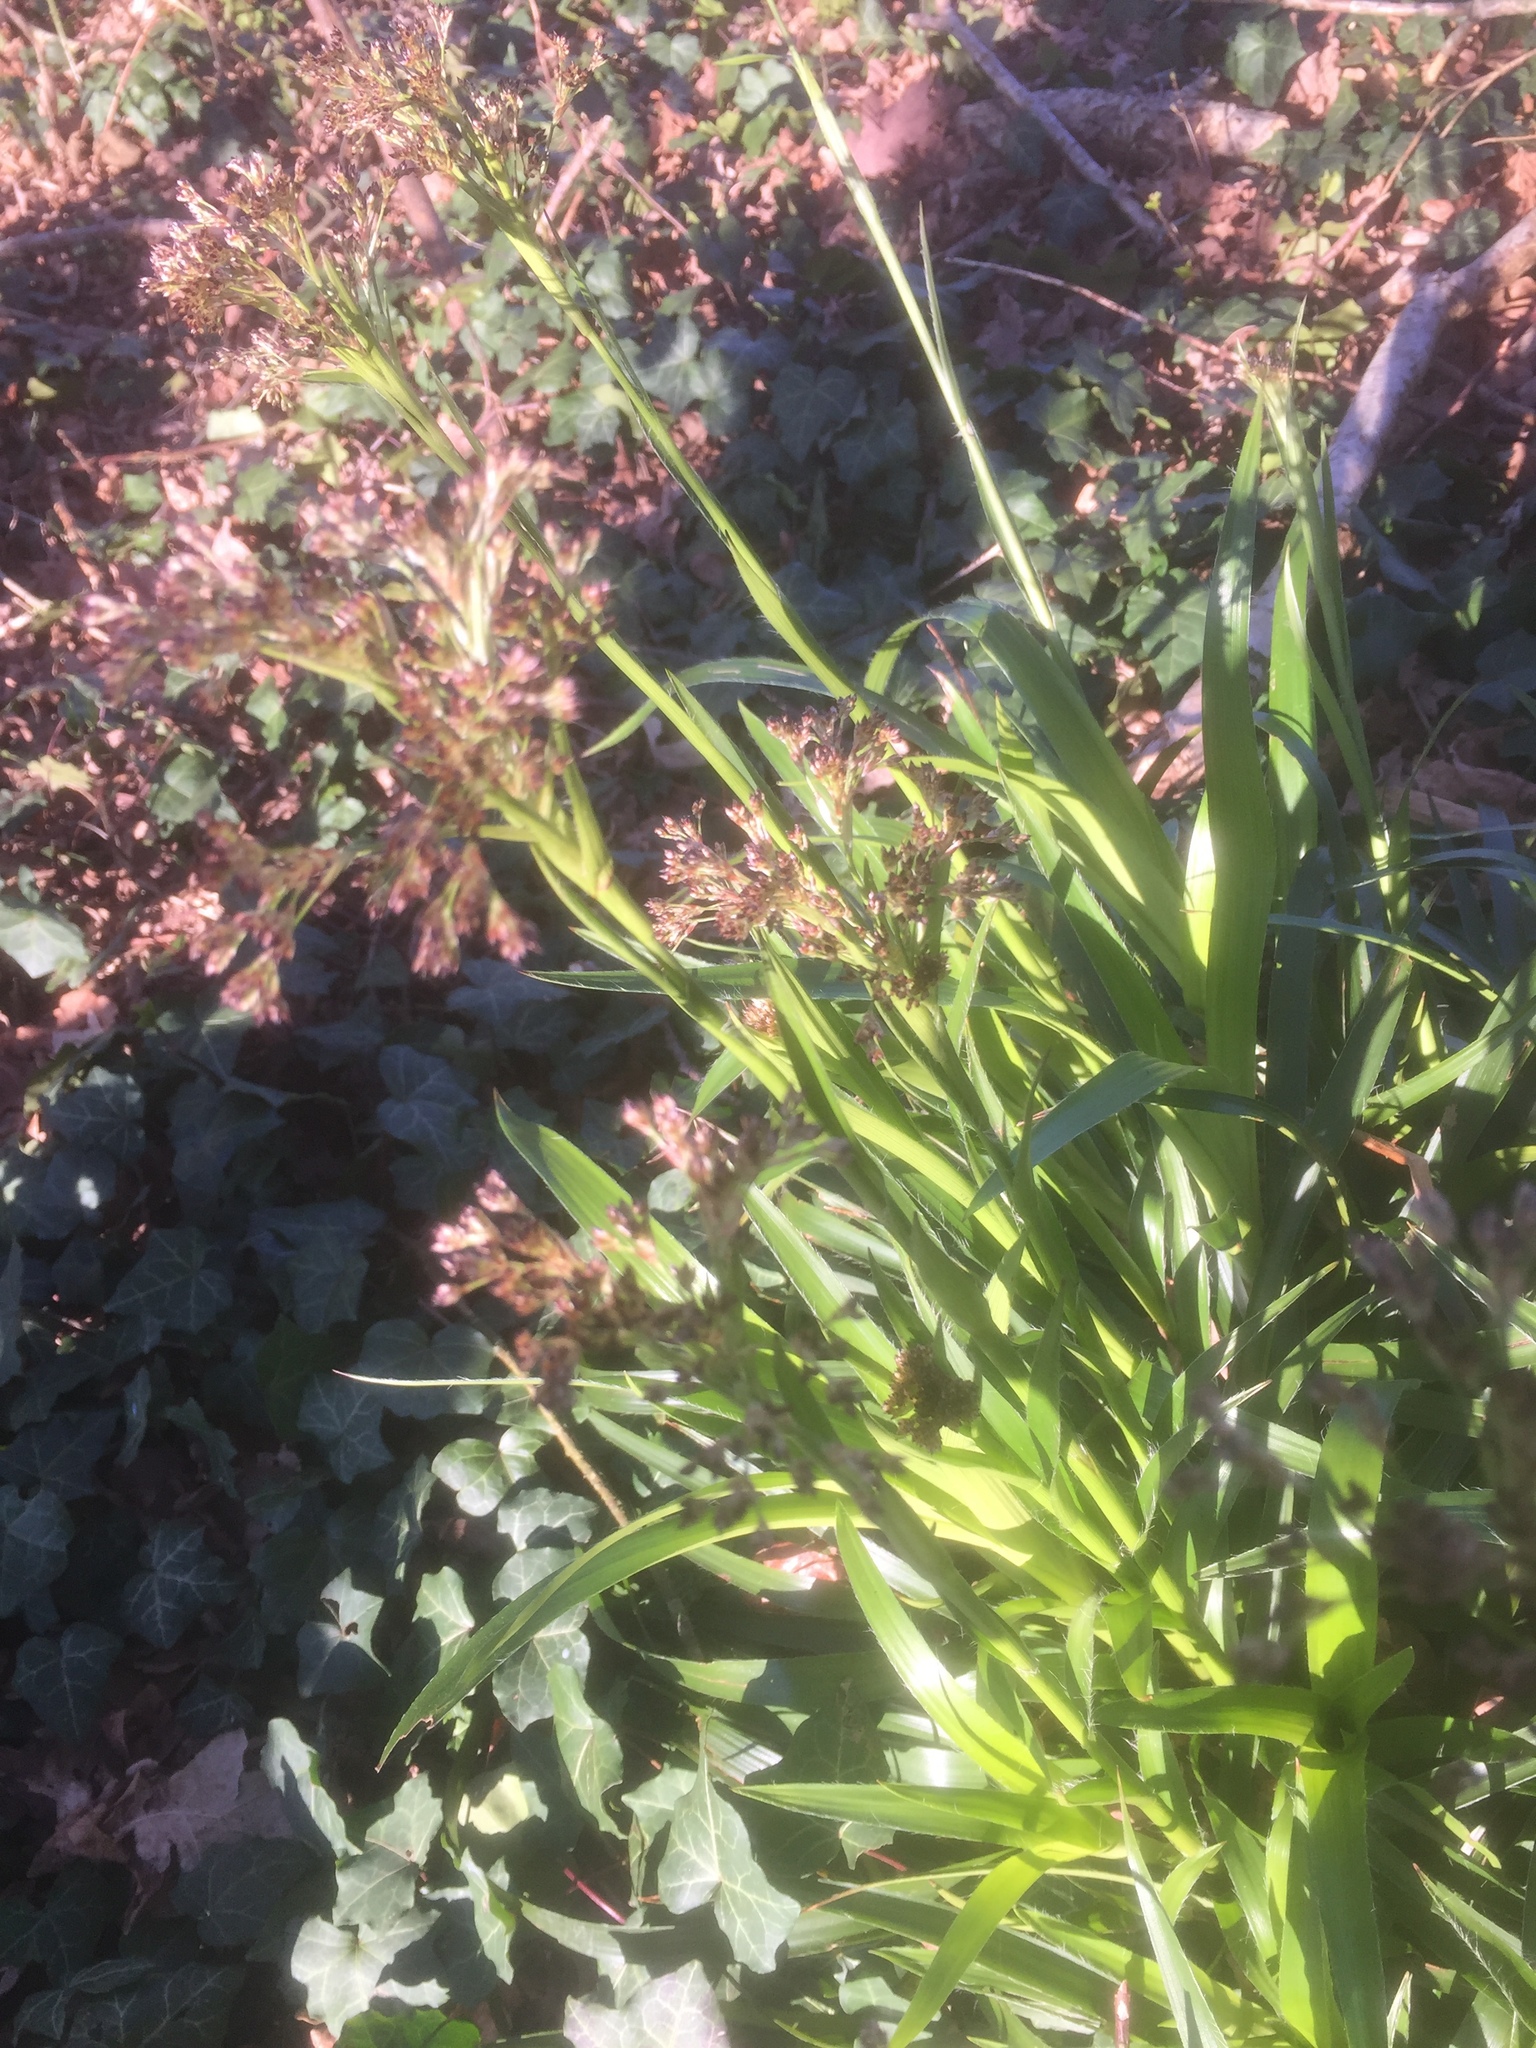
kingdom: Plantae
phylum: Tracheophyta
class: Liliopsida
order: Poales
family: Juncaceae
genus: Luzula
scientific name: Luzula sylvatica
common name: Great wood-rush
